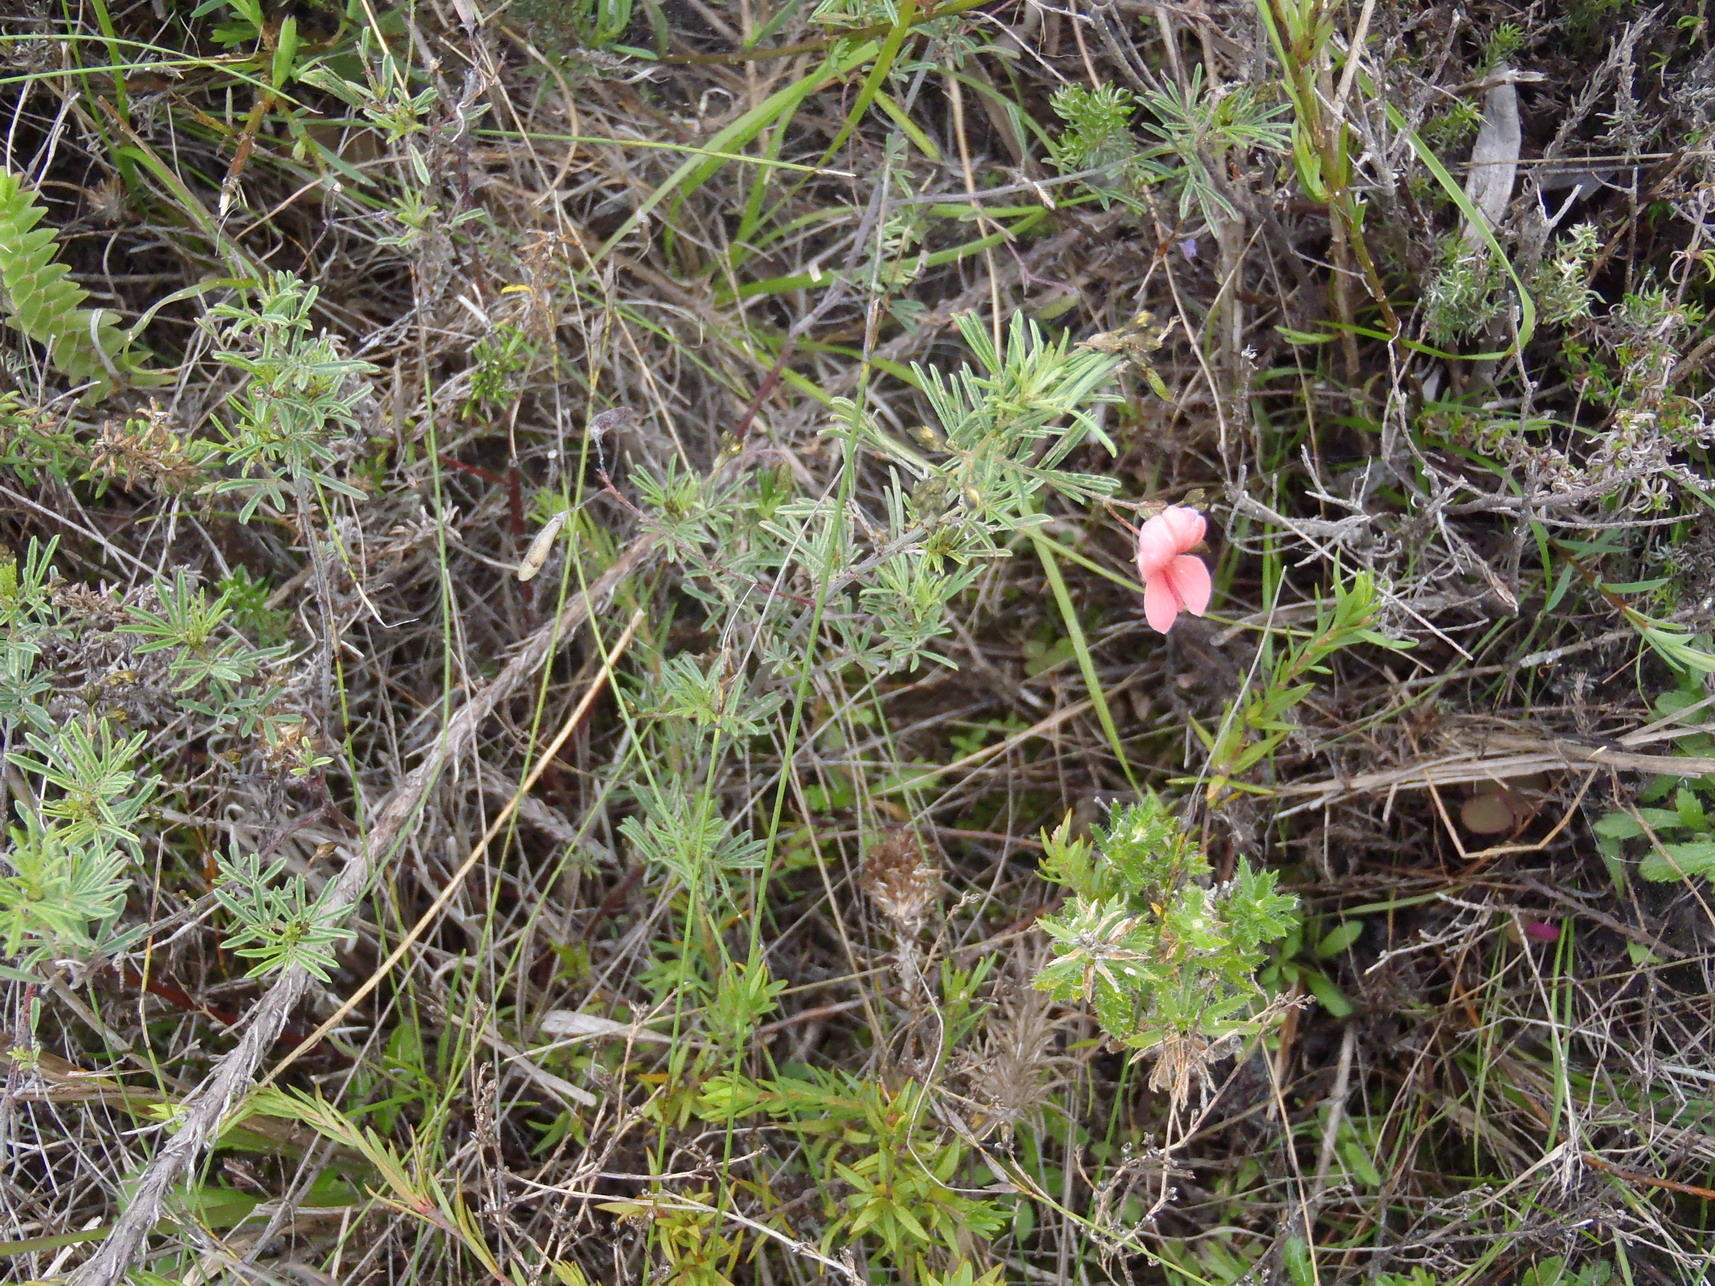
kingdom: Plantae
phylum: Tracheophyta
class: Magnoliopsida
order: Fabales
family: Fabaceae
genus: Indigofera
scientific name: Indigofera verrucosa
